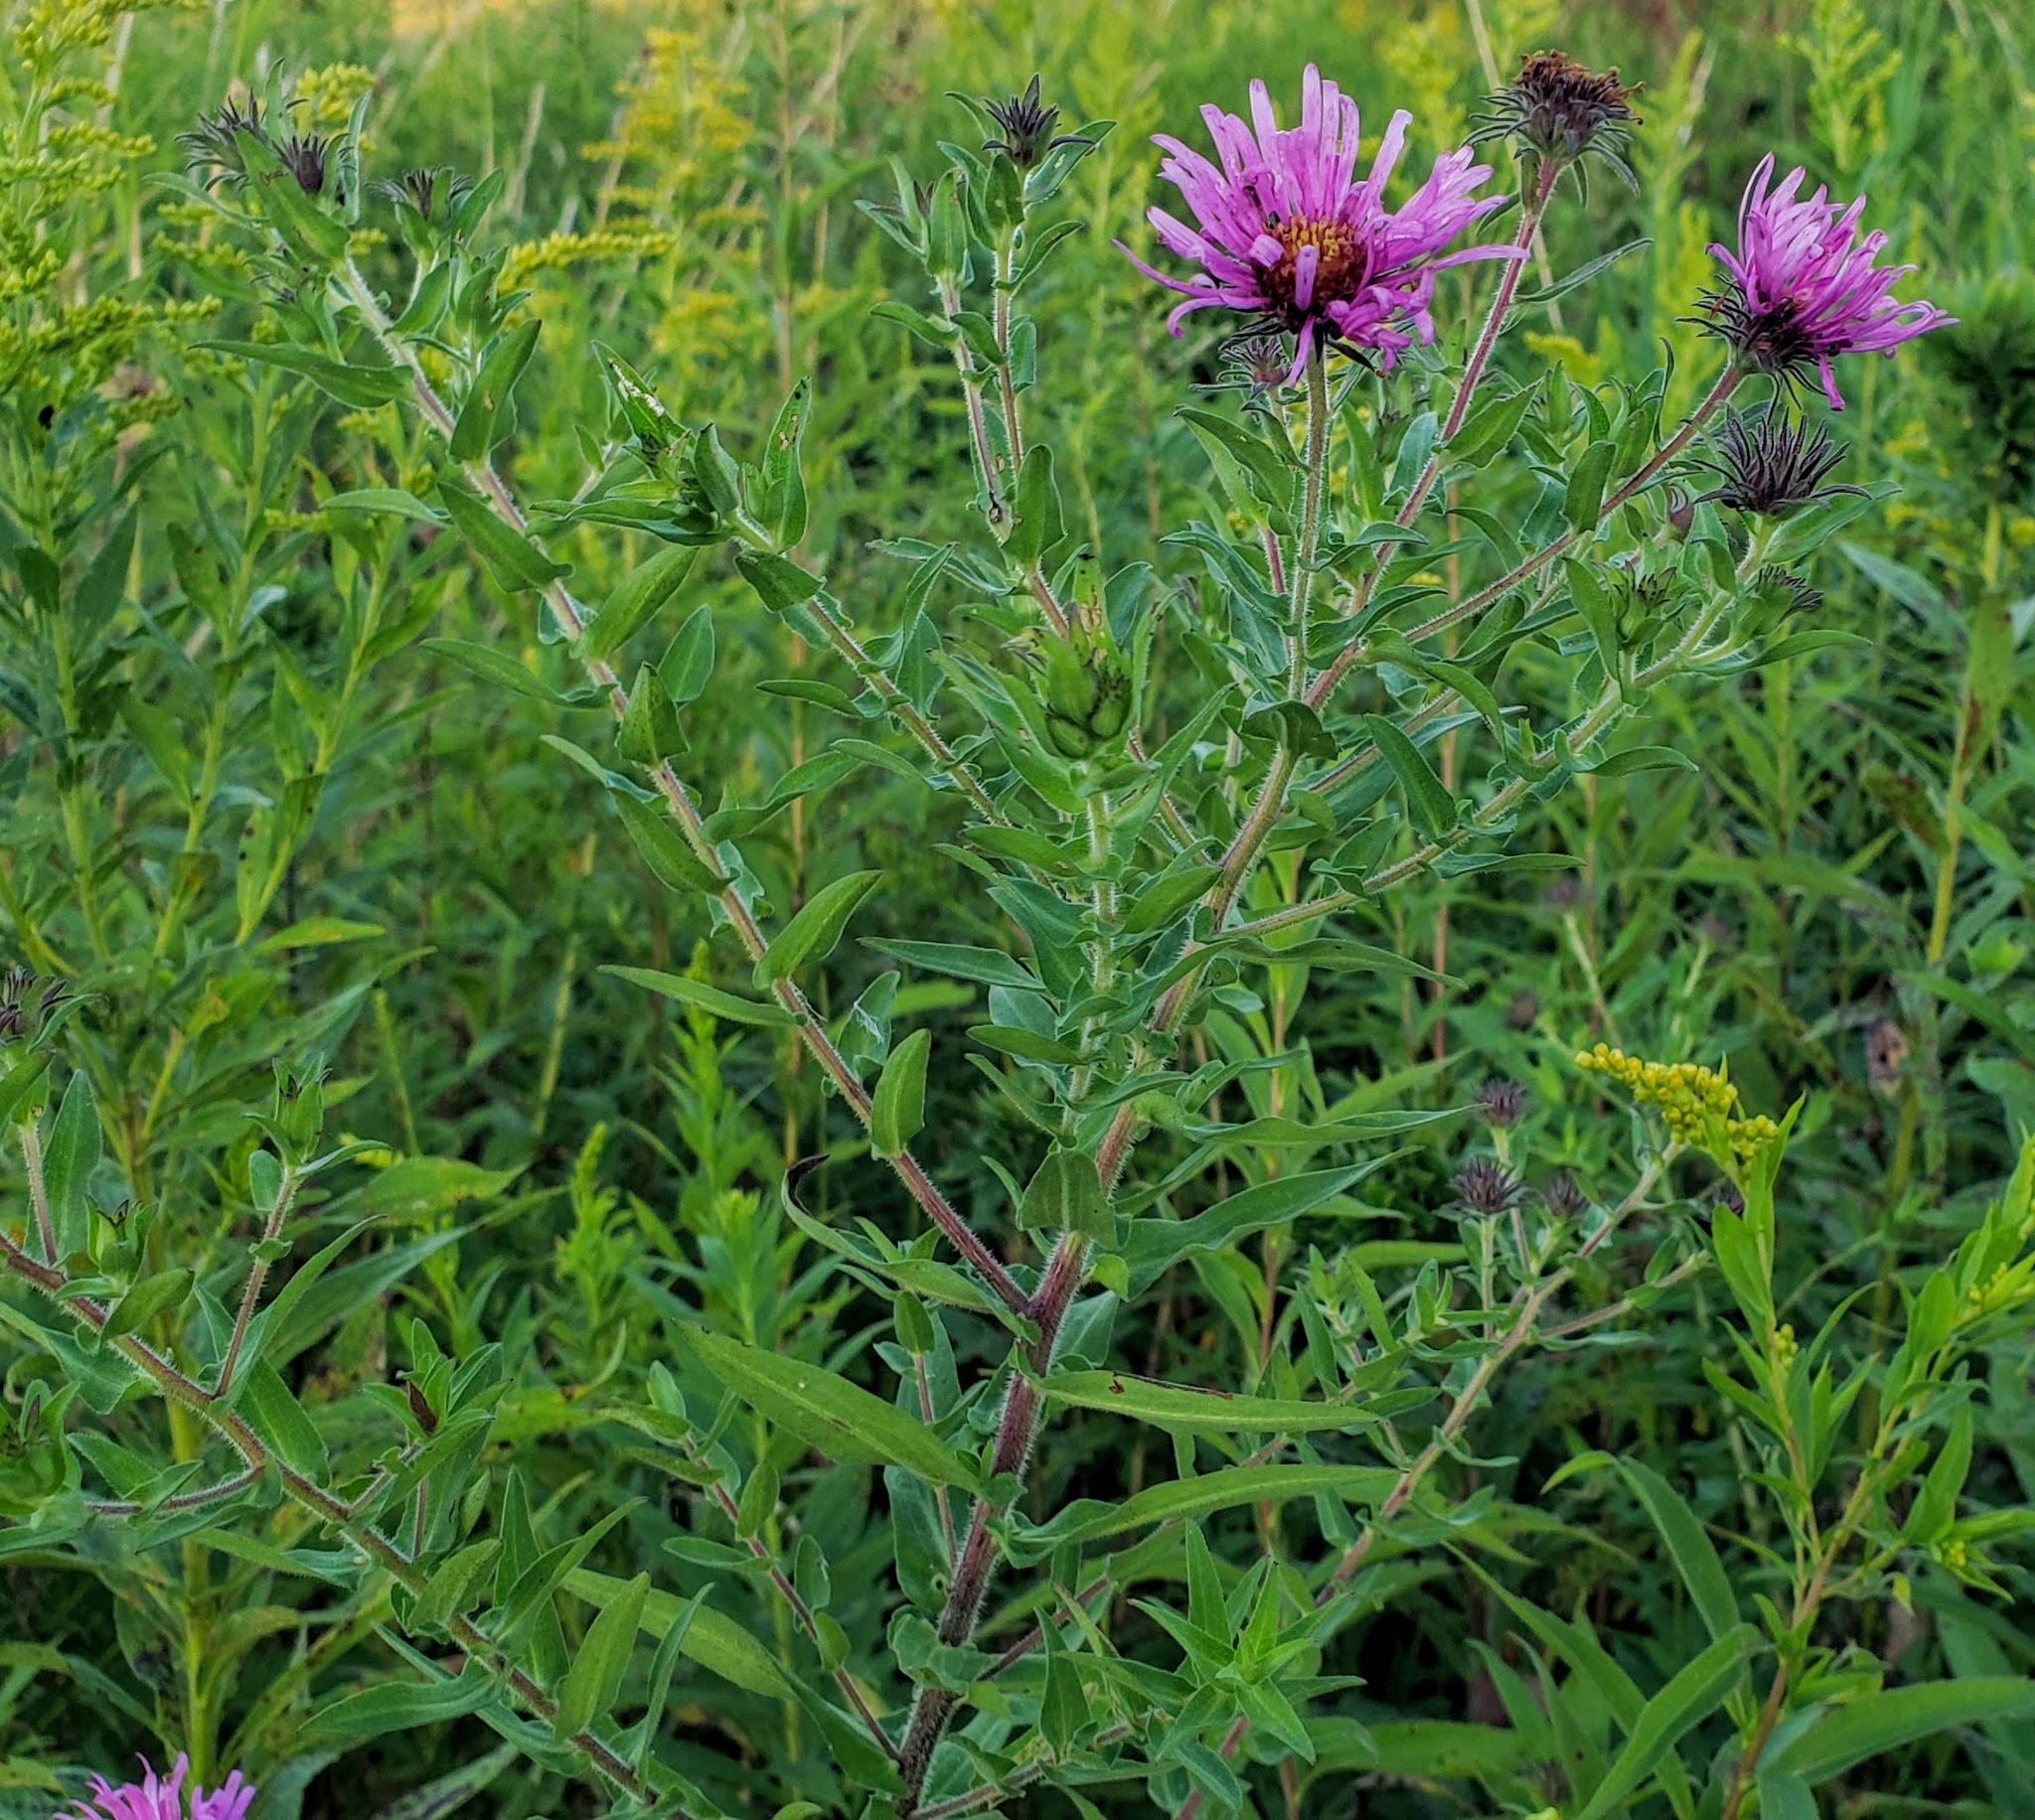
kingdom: Plantae
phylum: Tracheophyta
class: Magnoliopsida
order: Asterales
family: Asteraceae
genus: Symphyotrichum
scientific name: Symphyotrichum novae-angliae
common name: Michaelmas daisy
